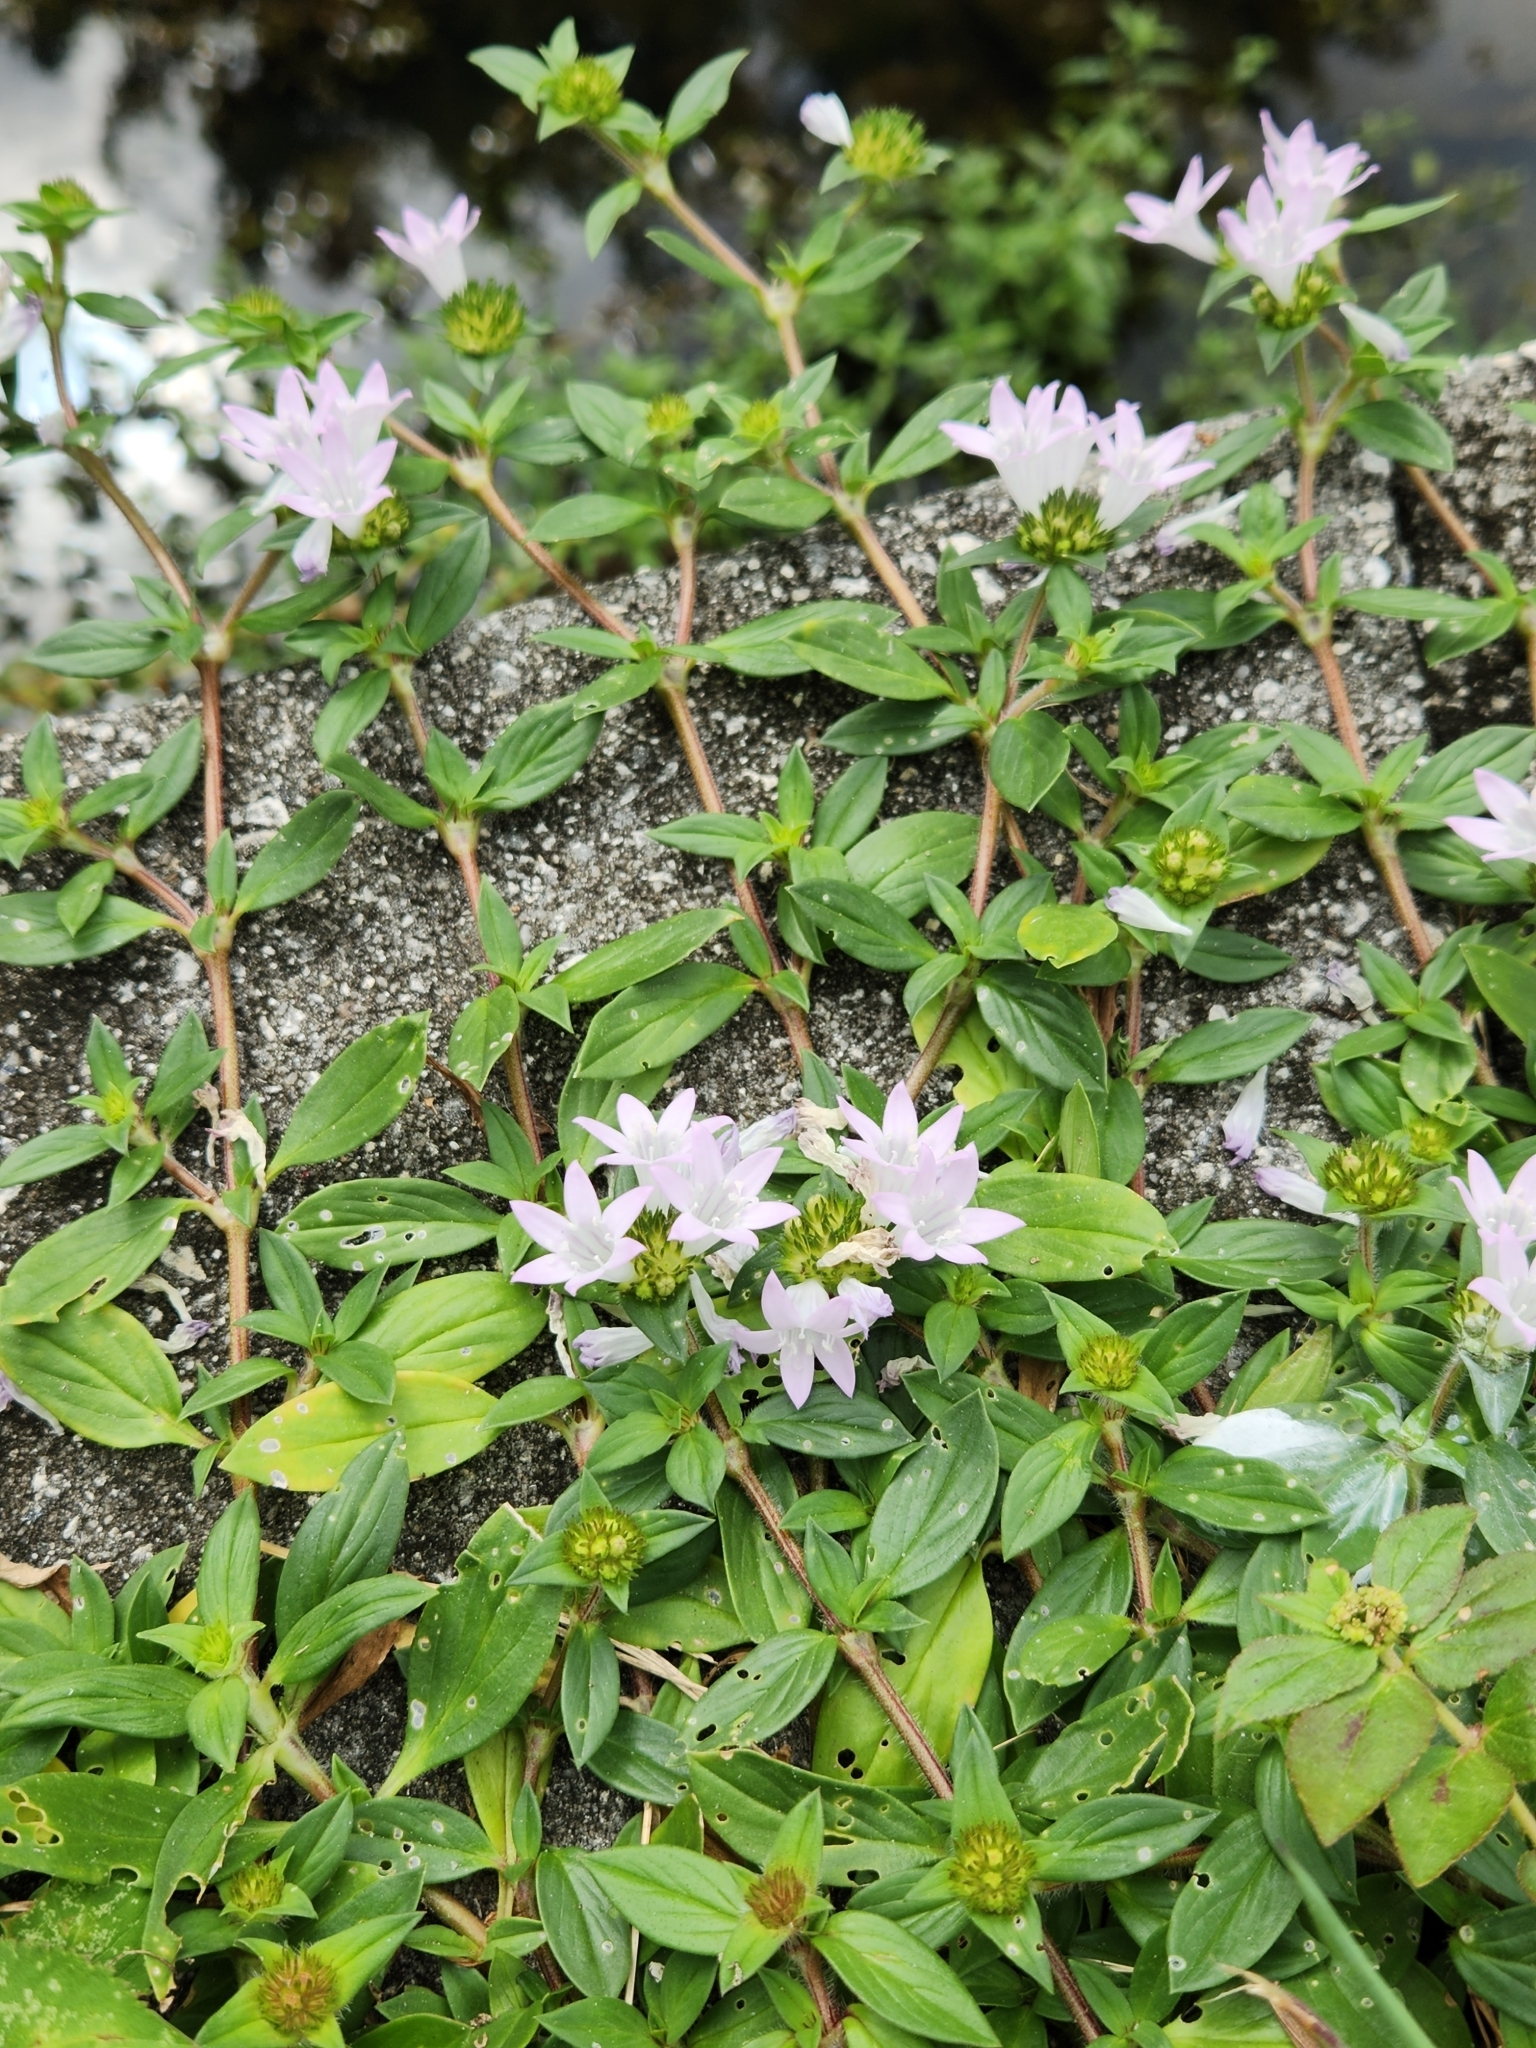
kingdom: Plantae
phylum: Tracheophyta
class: Magnoliopsida
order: Gentianales
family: Rubiaceae
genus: Richardia
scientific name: Richardia grandiflora
